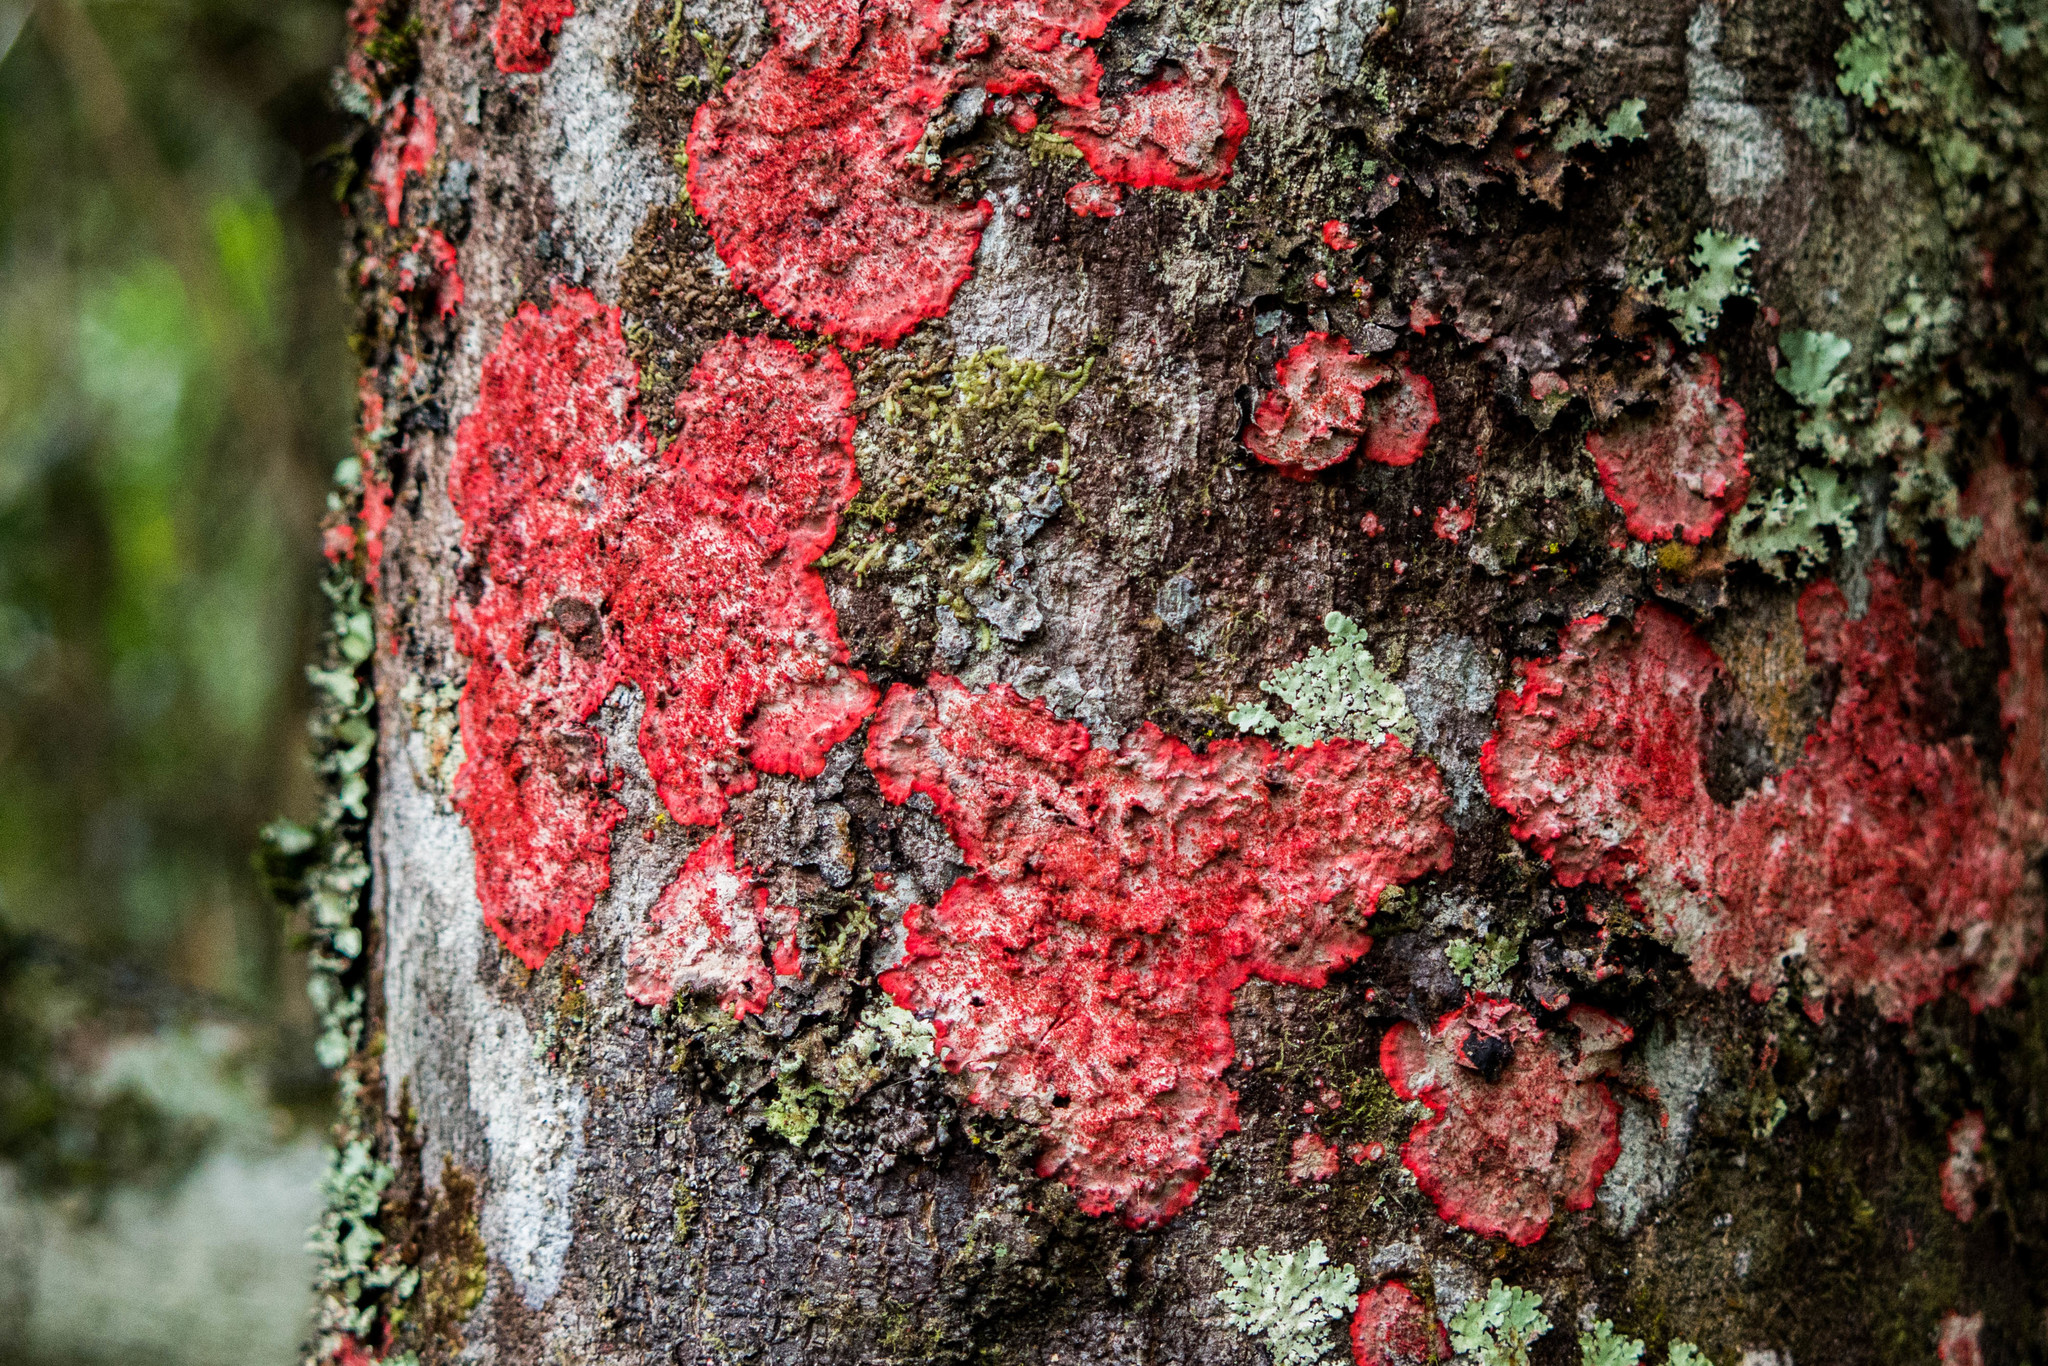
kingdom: Fungi
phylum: Ascomycota
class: Arthoniomycetes
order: Arthoniales
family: Arthoniaceae
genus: Herpothallon
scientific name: Herpothallon rubrocinctum
